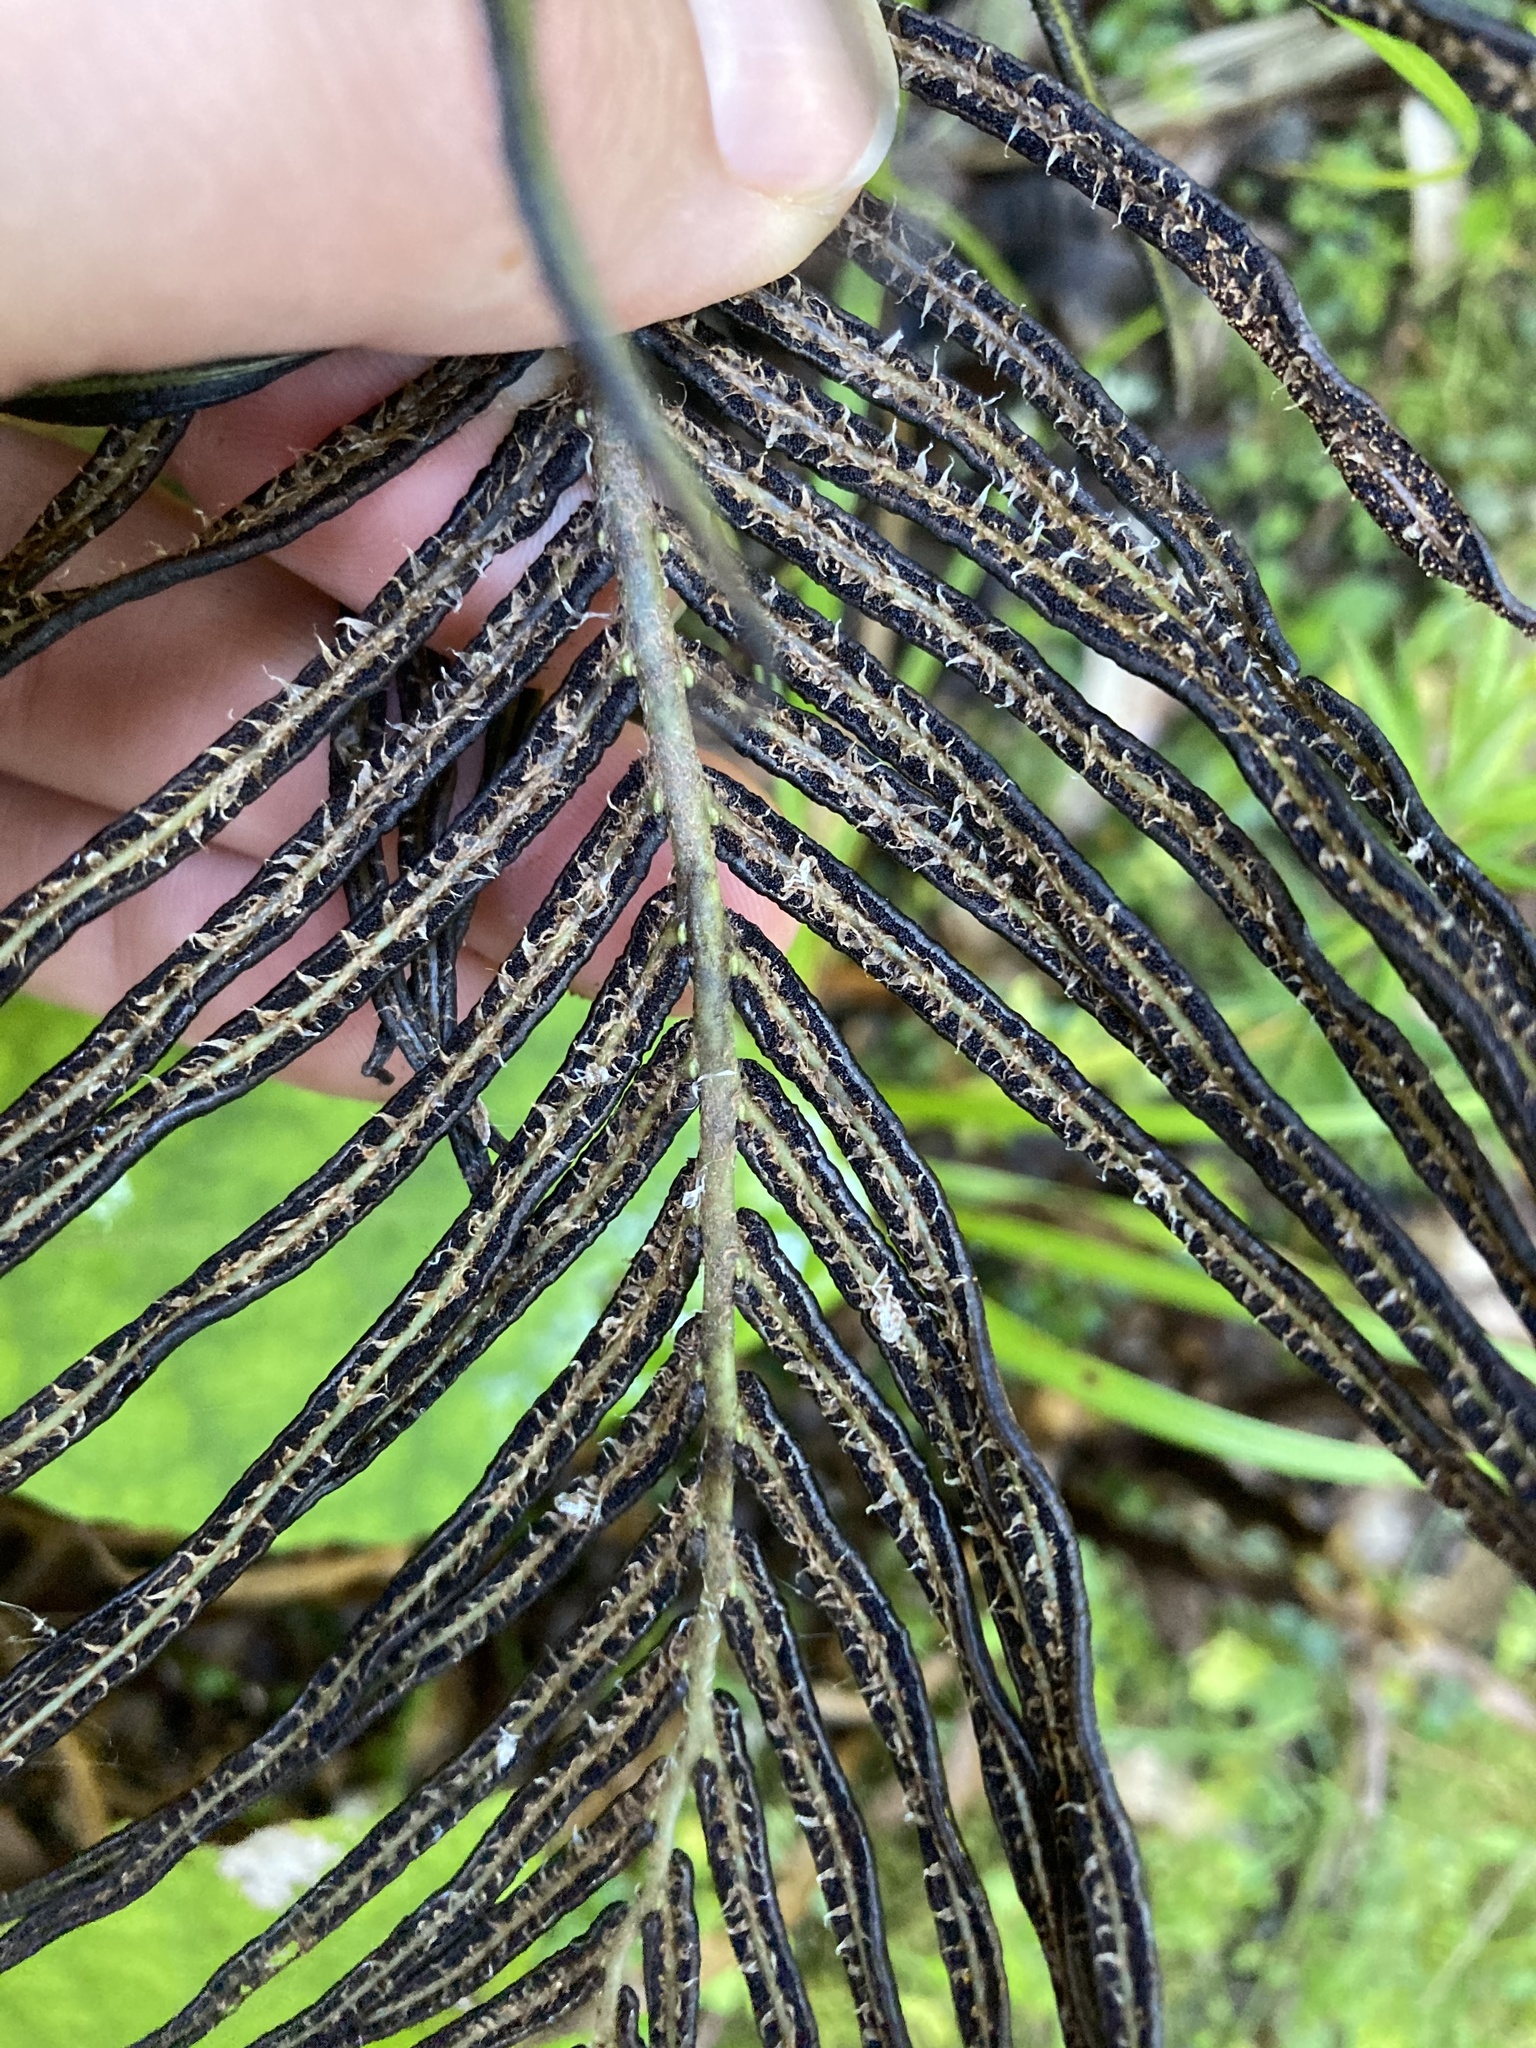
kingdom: Plantae
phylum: Tracheophyta
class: Polypodiopsida
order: Polypodiales
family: Blechnaceae
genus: Parablechnum
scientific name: Parablechnum novae-zelandiae
